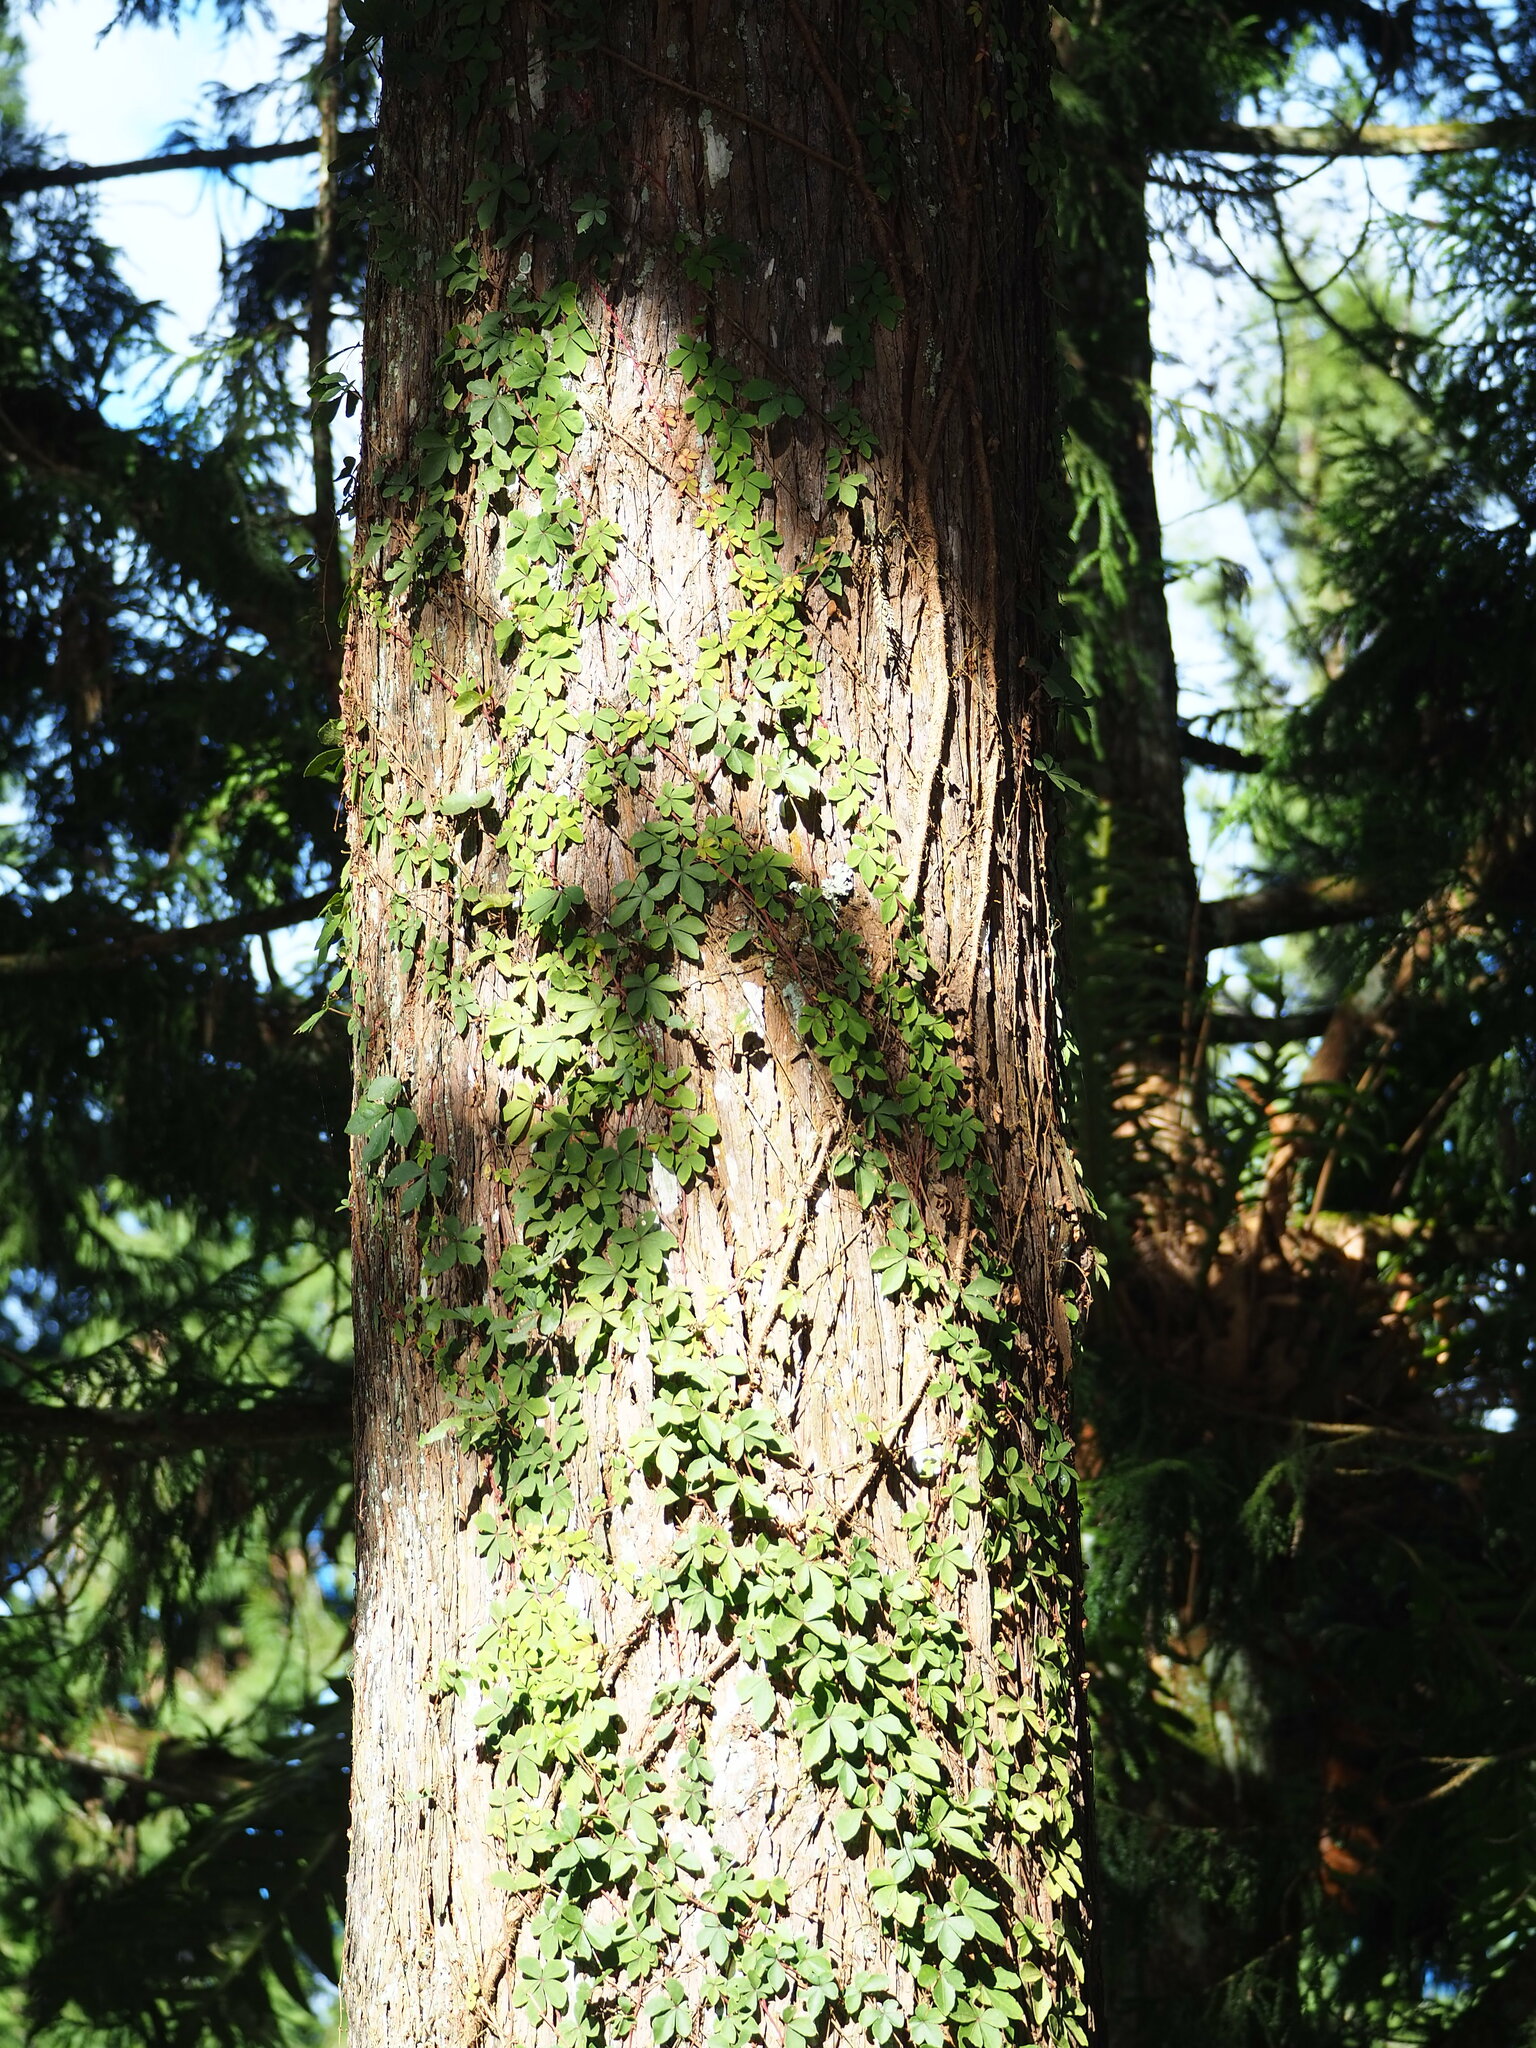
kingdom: Plantae
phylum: Tracheophyta
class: Magnoliopsida
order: Vitales
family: Vitaceae
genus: Tetrastigma
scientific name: Tetrastigma obtectum
